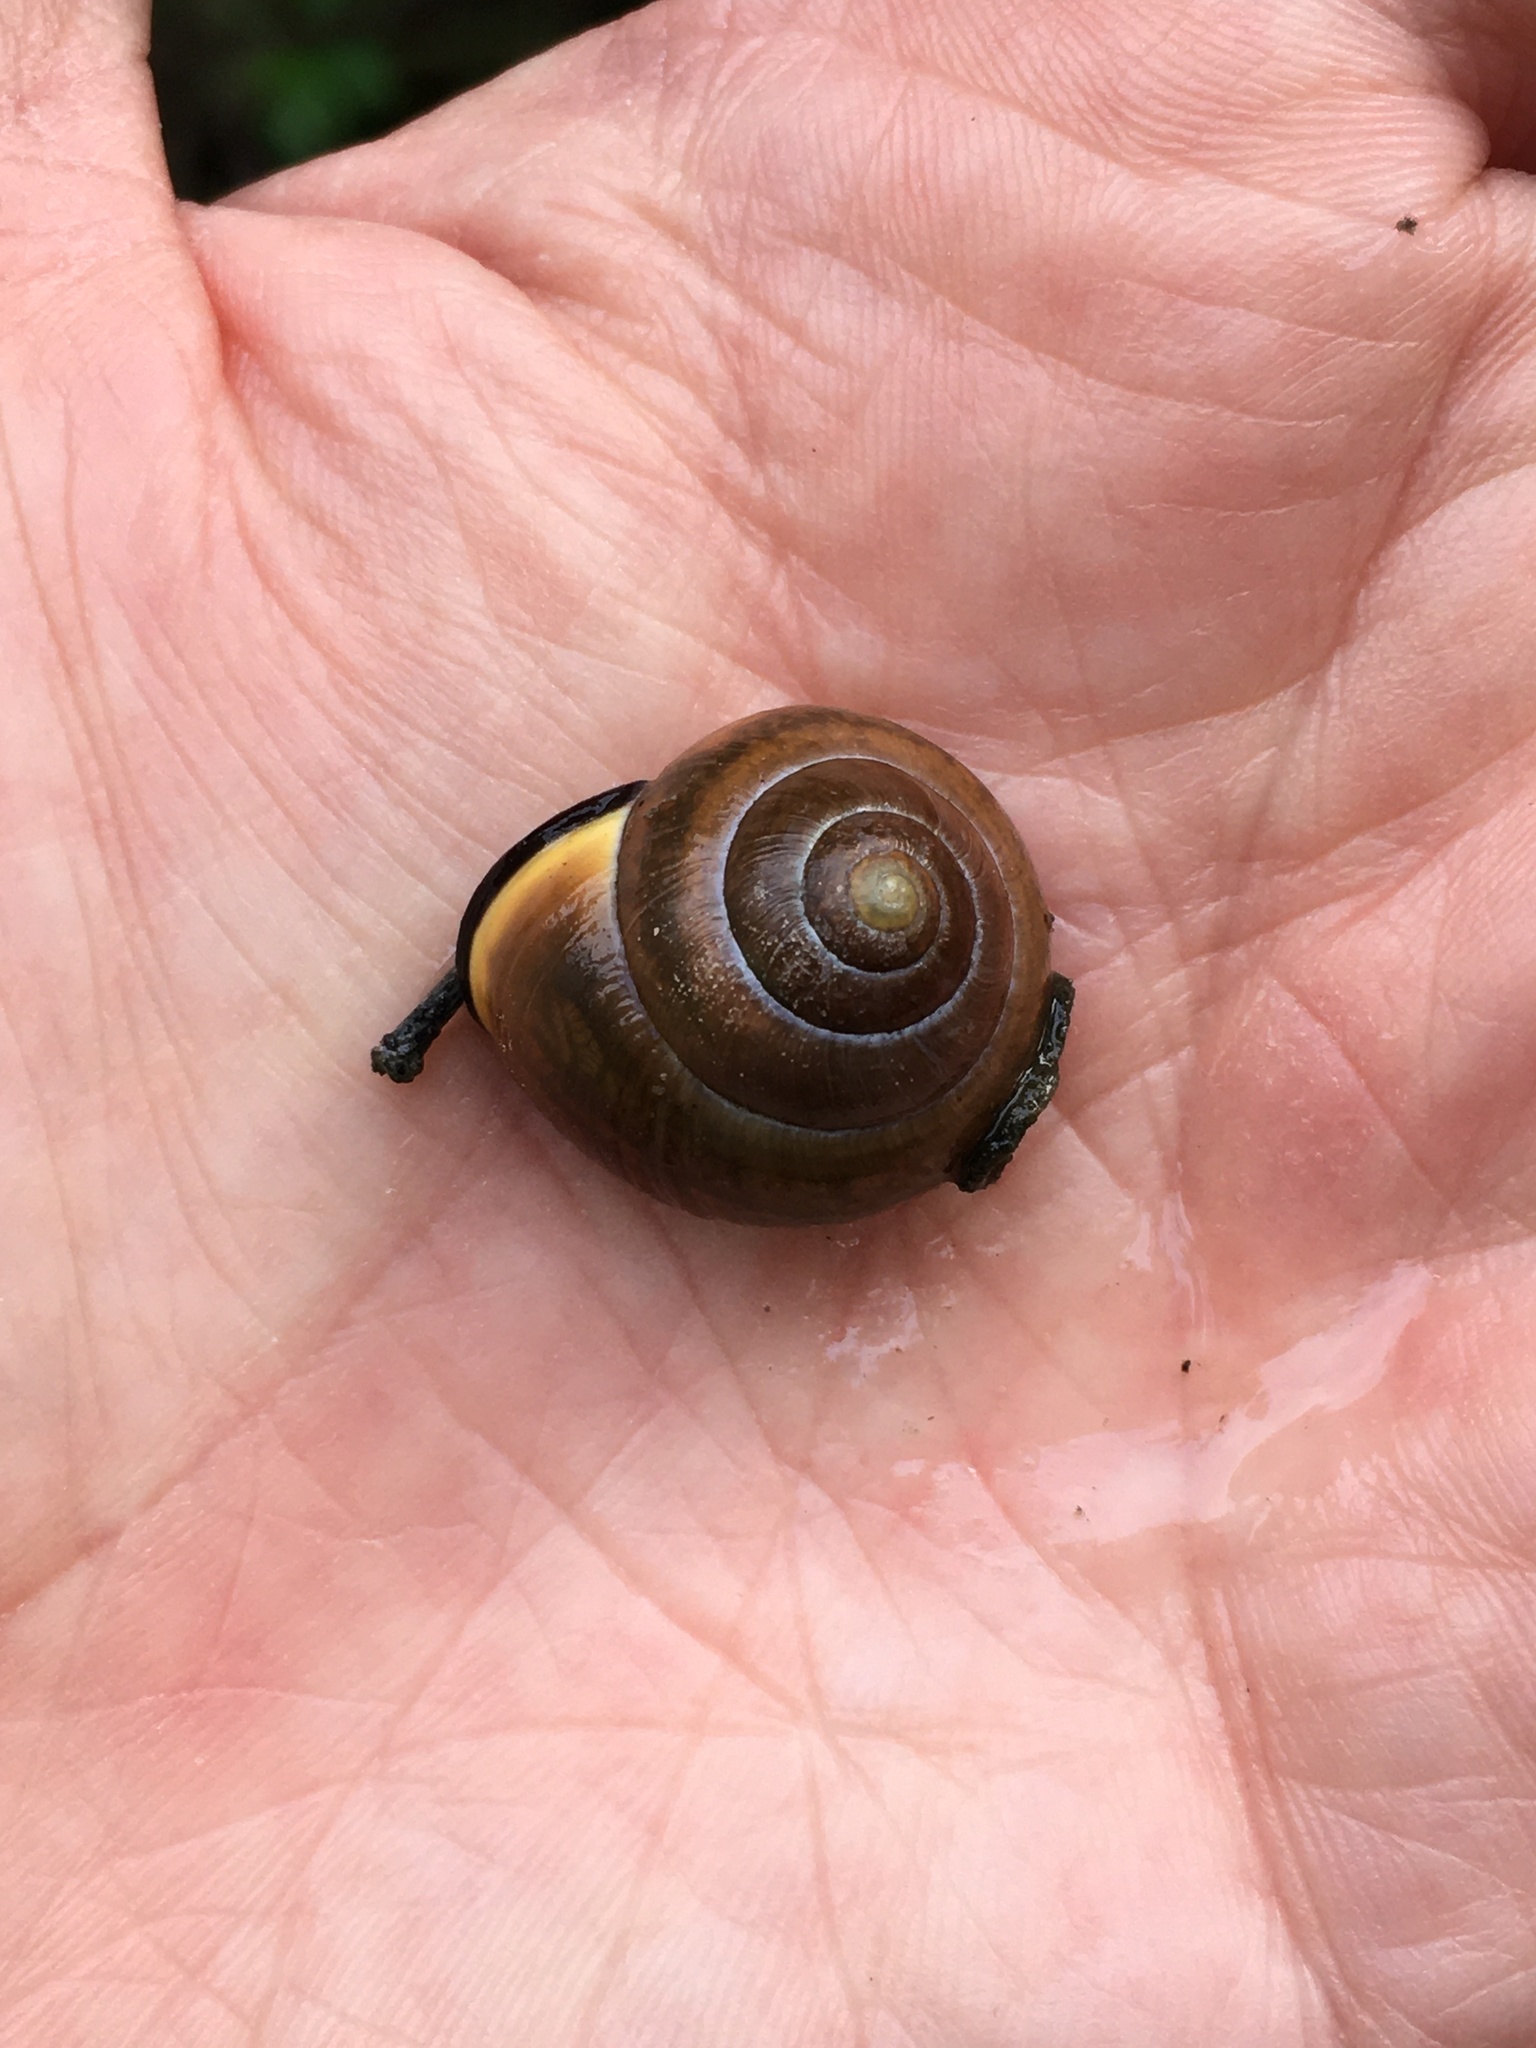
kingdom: Animalia
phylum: Mollusca
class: Gastropoda
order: Stylommatophora
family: Helicidae
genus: Cepaea
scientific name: Cepaea nemoralis
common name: Grovesnail
